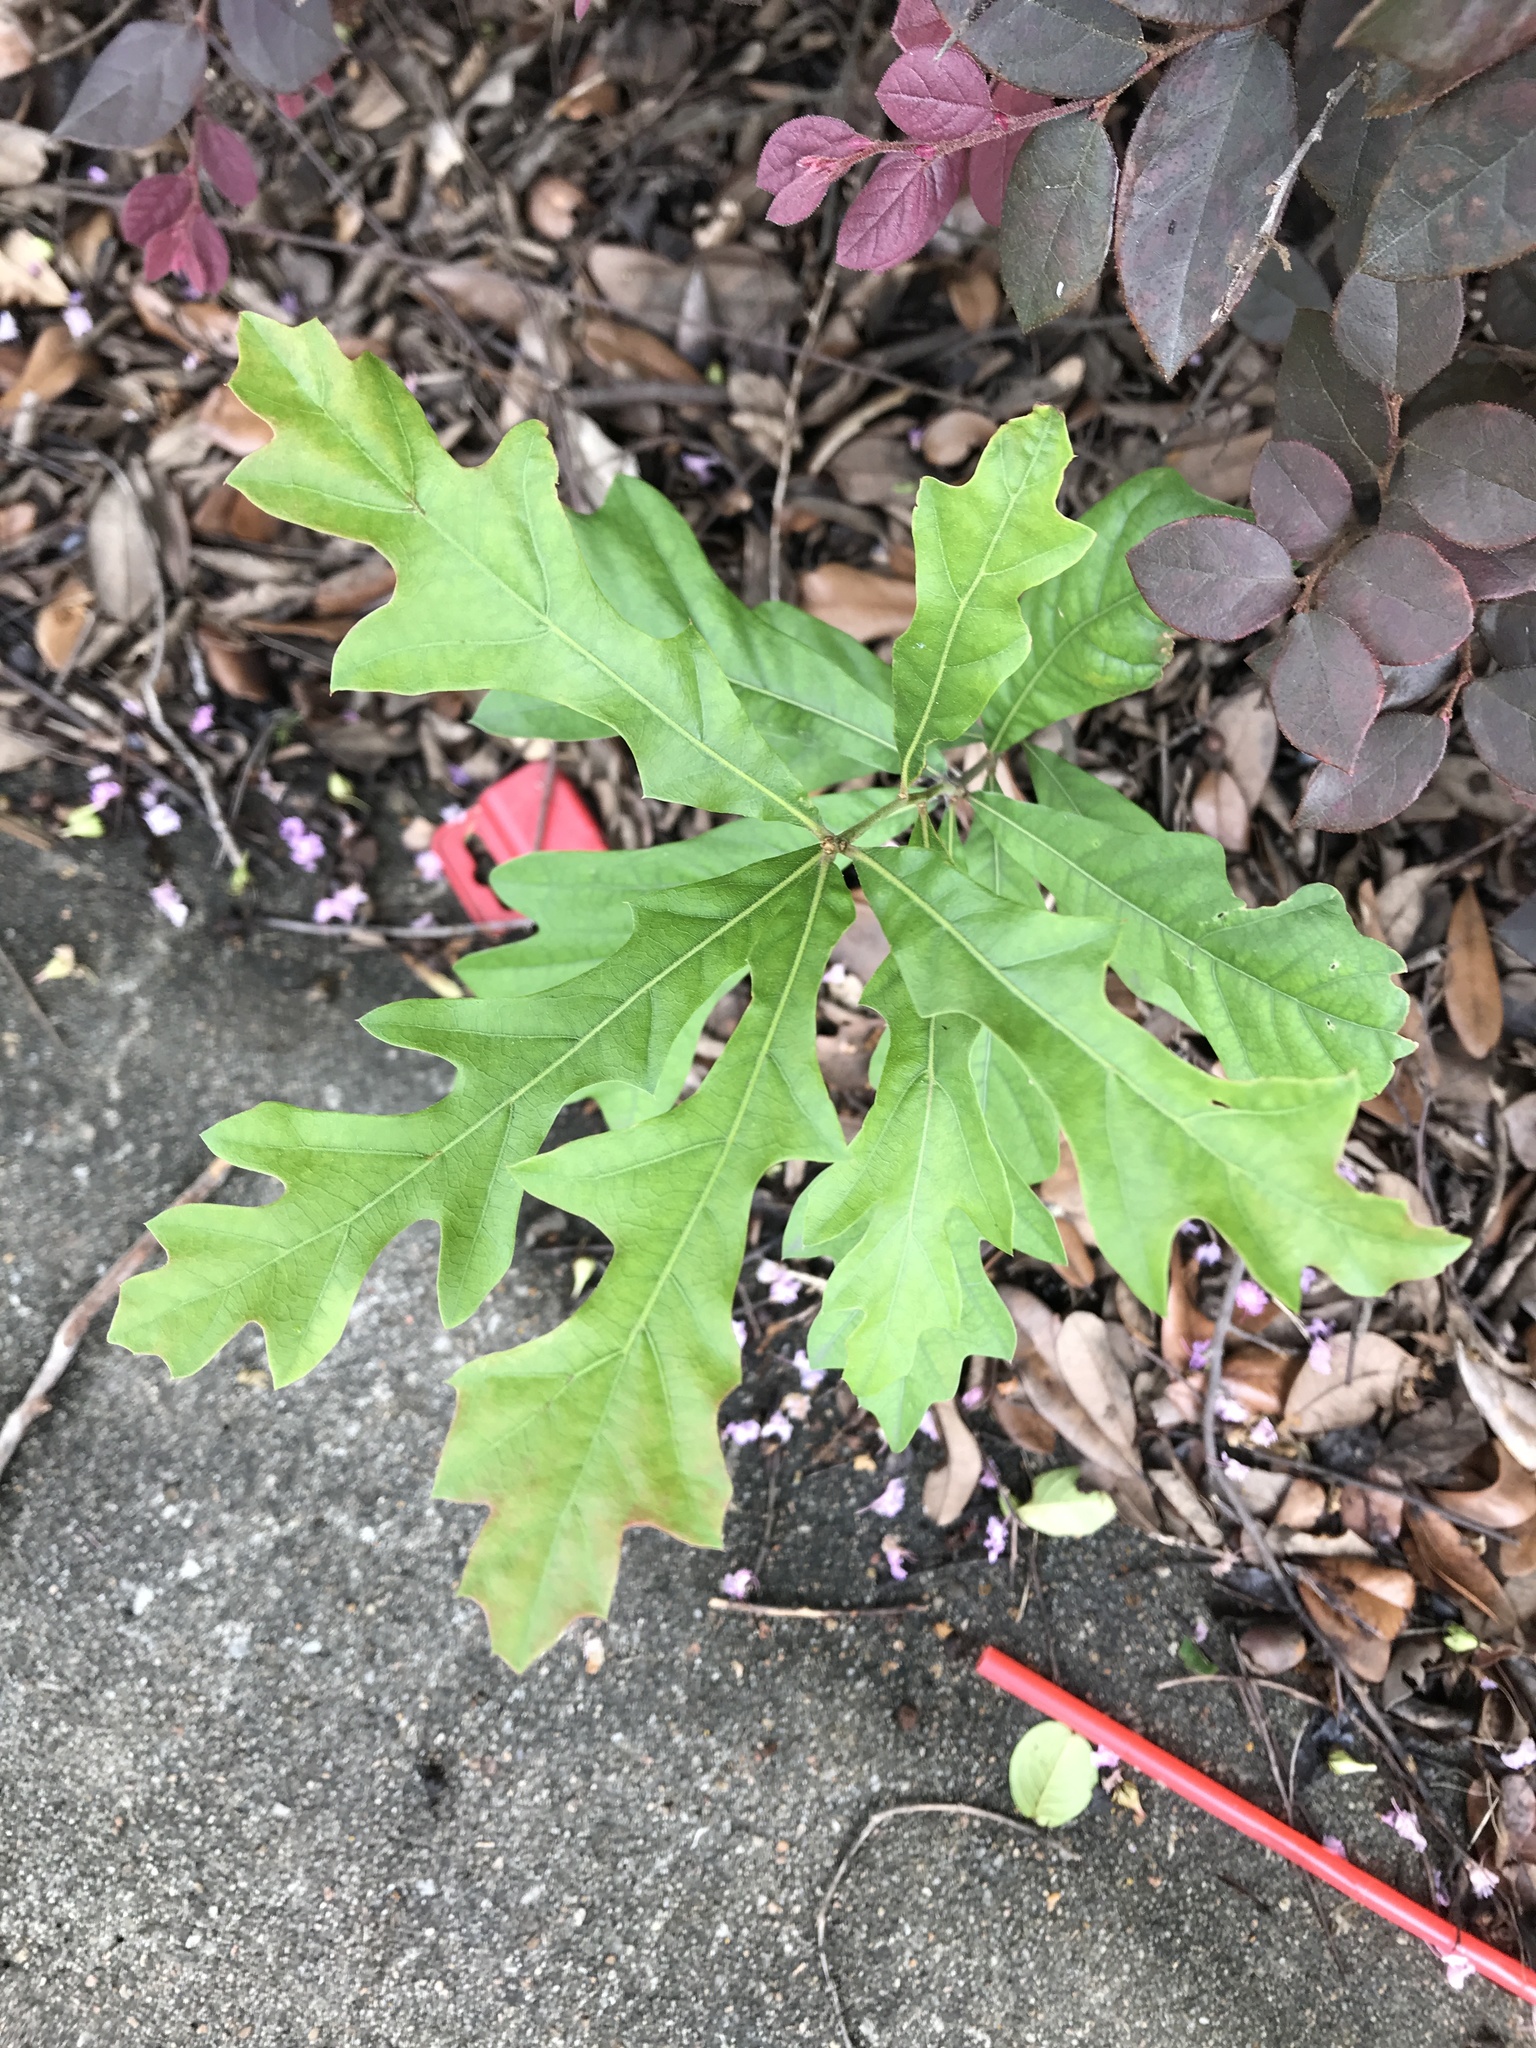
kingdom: Plantae
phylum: Tracheophyta
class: Magnoliopsida
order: Fagales
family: Fagaceae
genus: Quercus
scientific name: Quercus nigra
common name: Water oak
